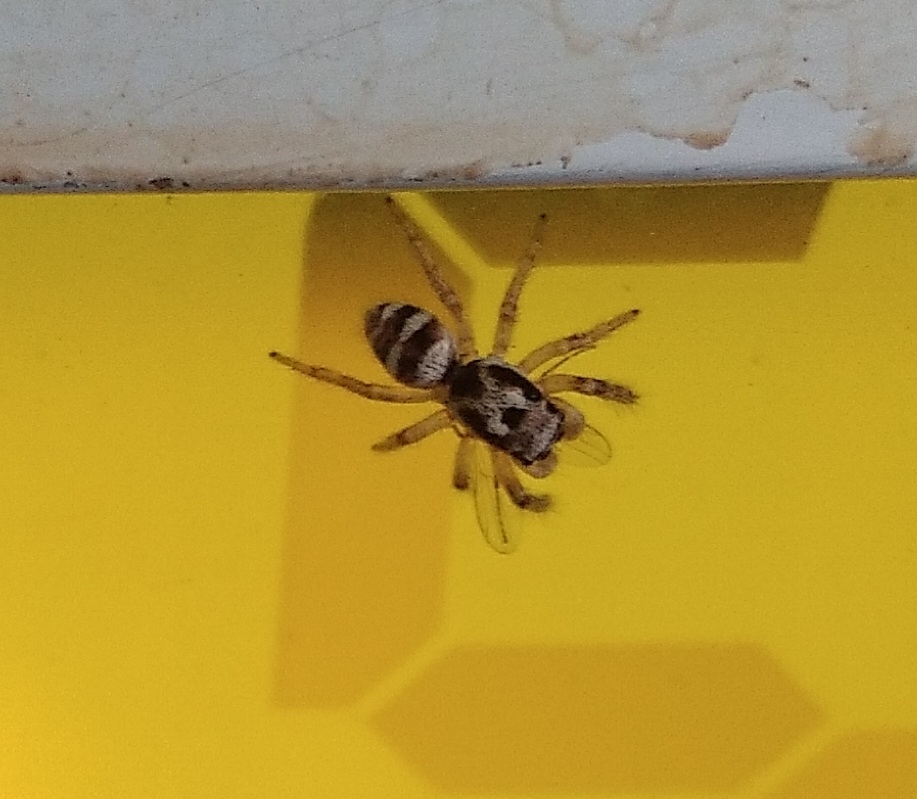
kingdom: Animalia
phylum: Arthropoda
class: Arachnida
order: Araneae
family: Salticidae
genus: Salticus
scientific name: Salticus scenicus
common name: Zebra jumper
